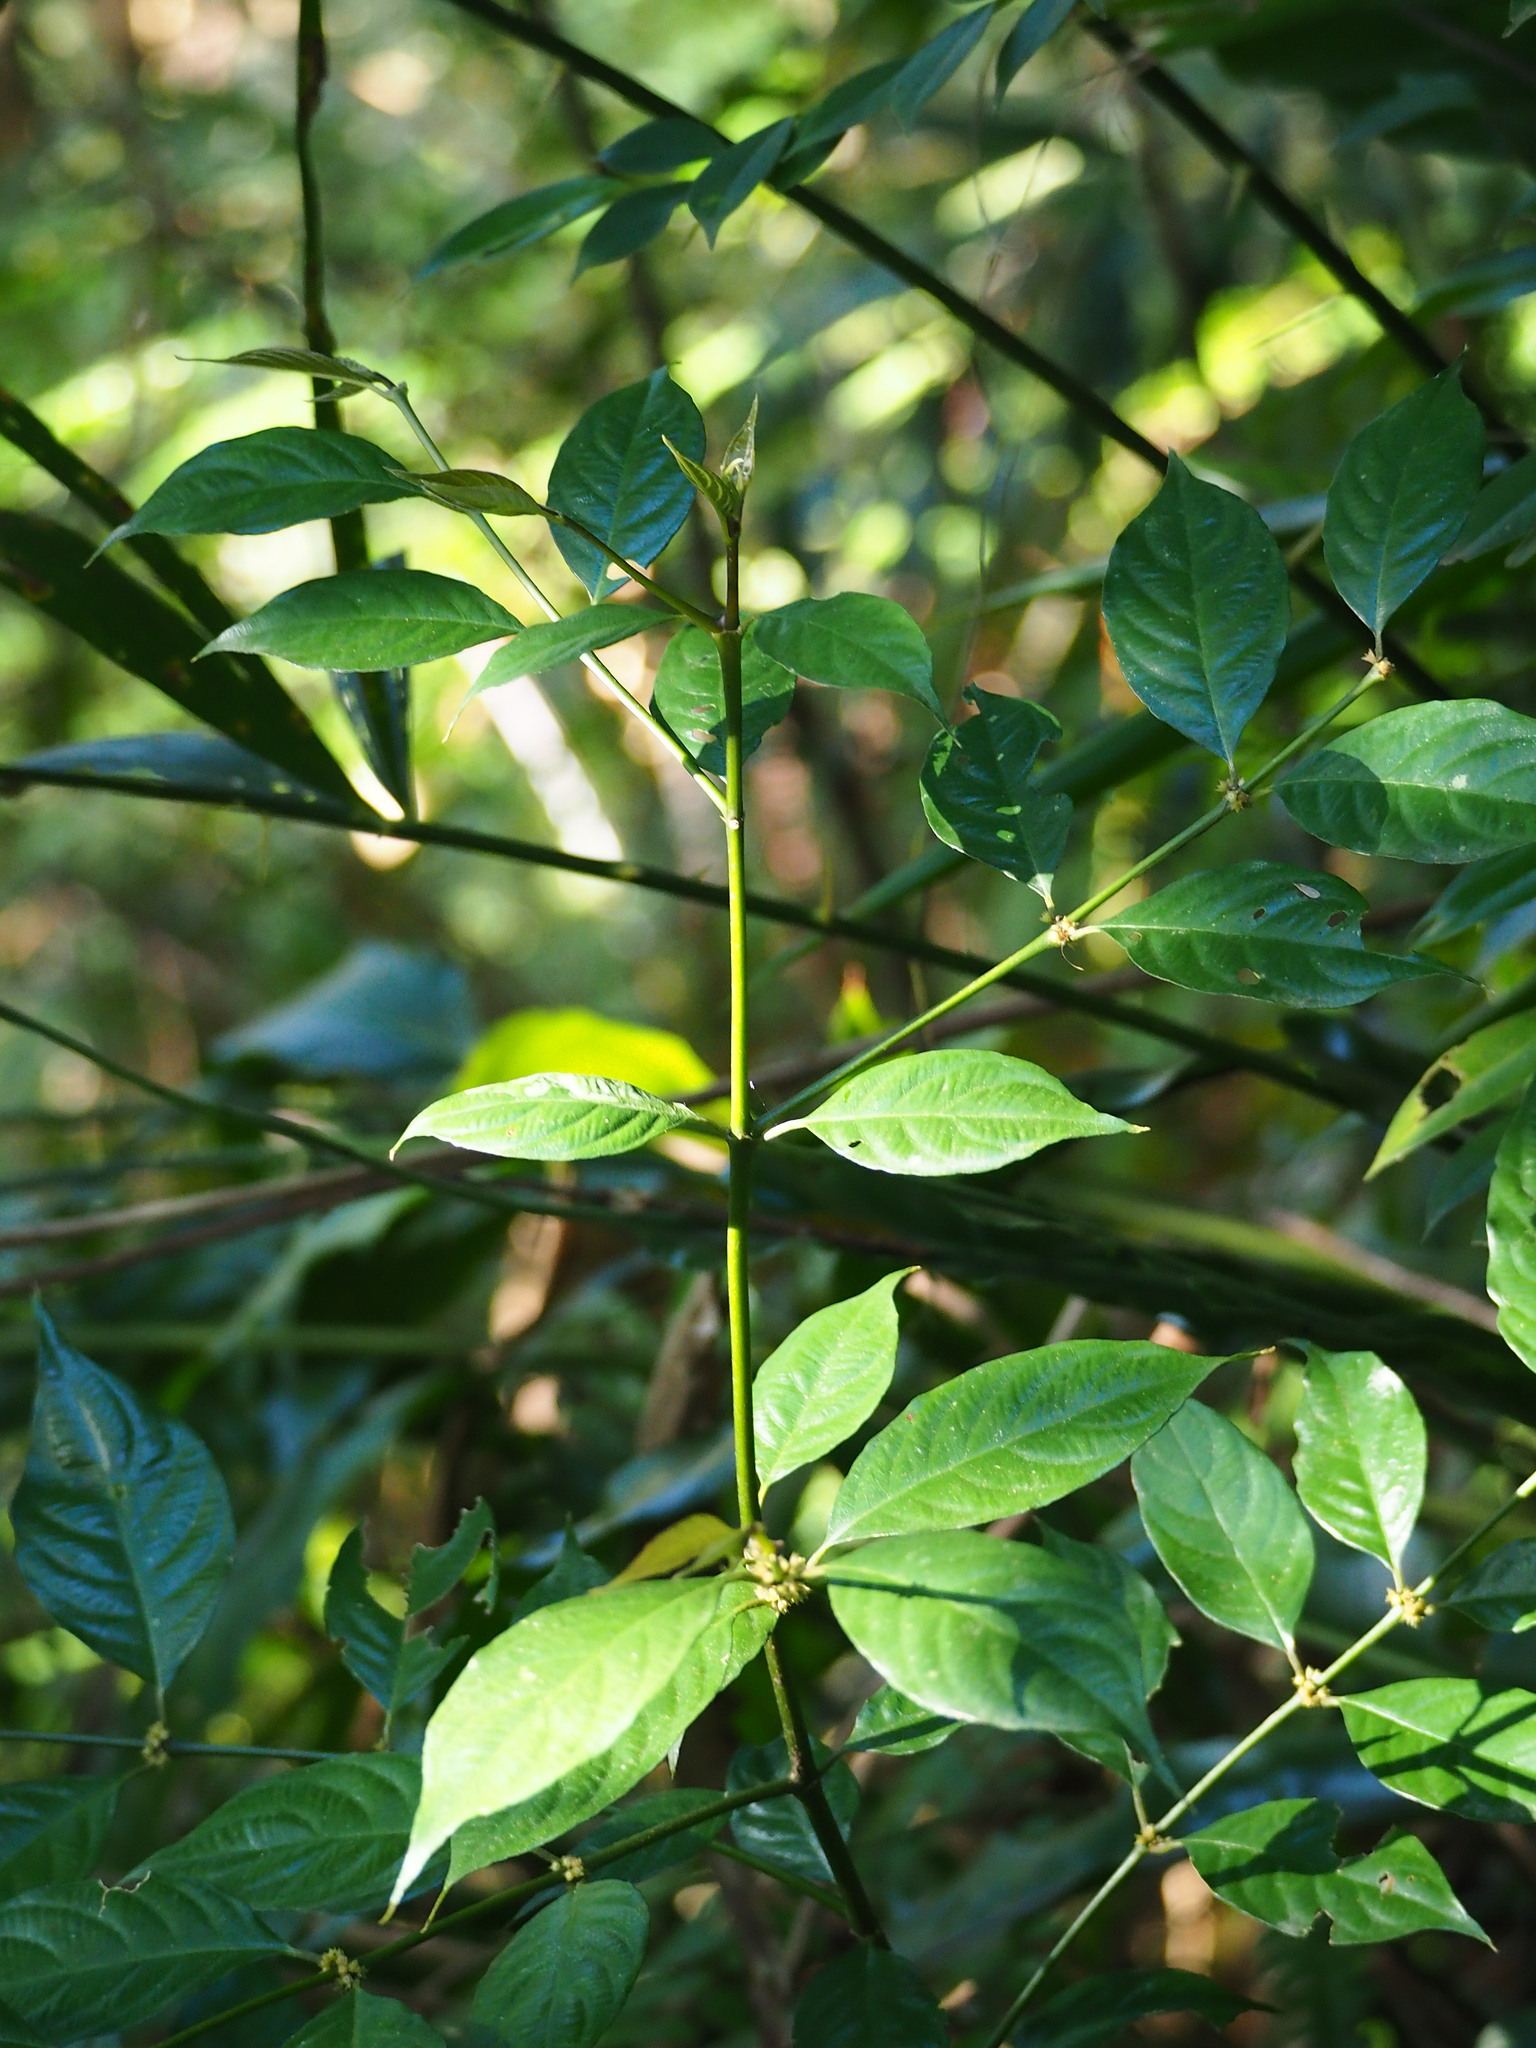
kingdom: Plantae
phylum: Tracheophyta
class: Magnoliopsida
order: Gentianales
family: Rubiaceae
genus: Lasianthus
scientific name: Lasianthus fordii
